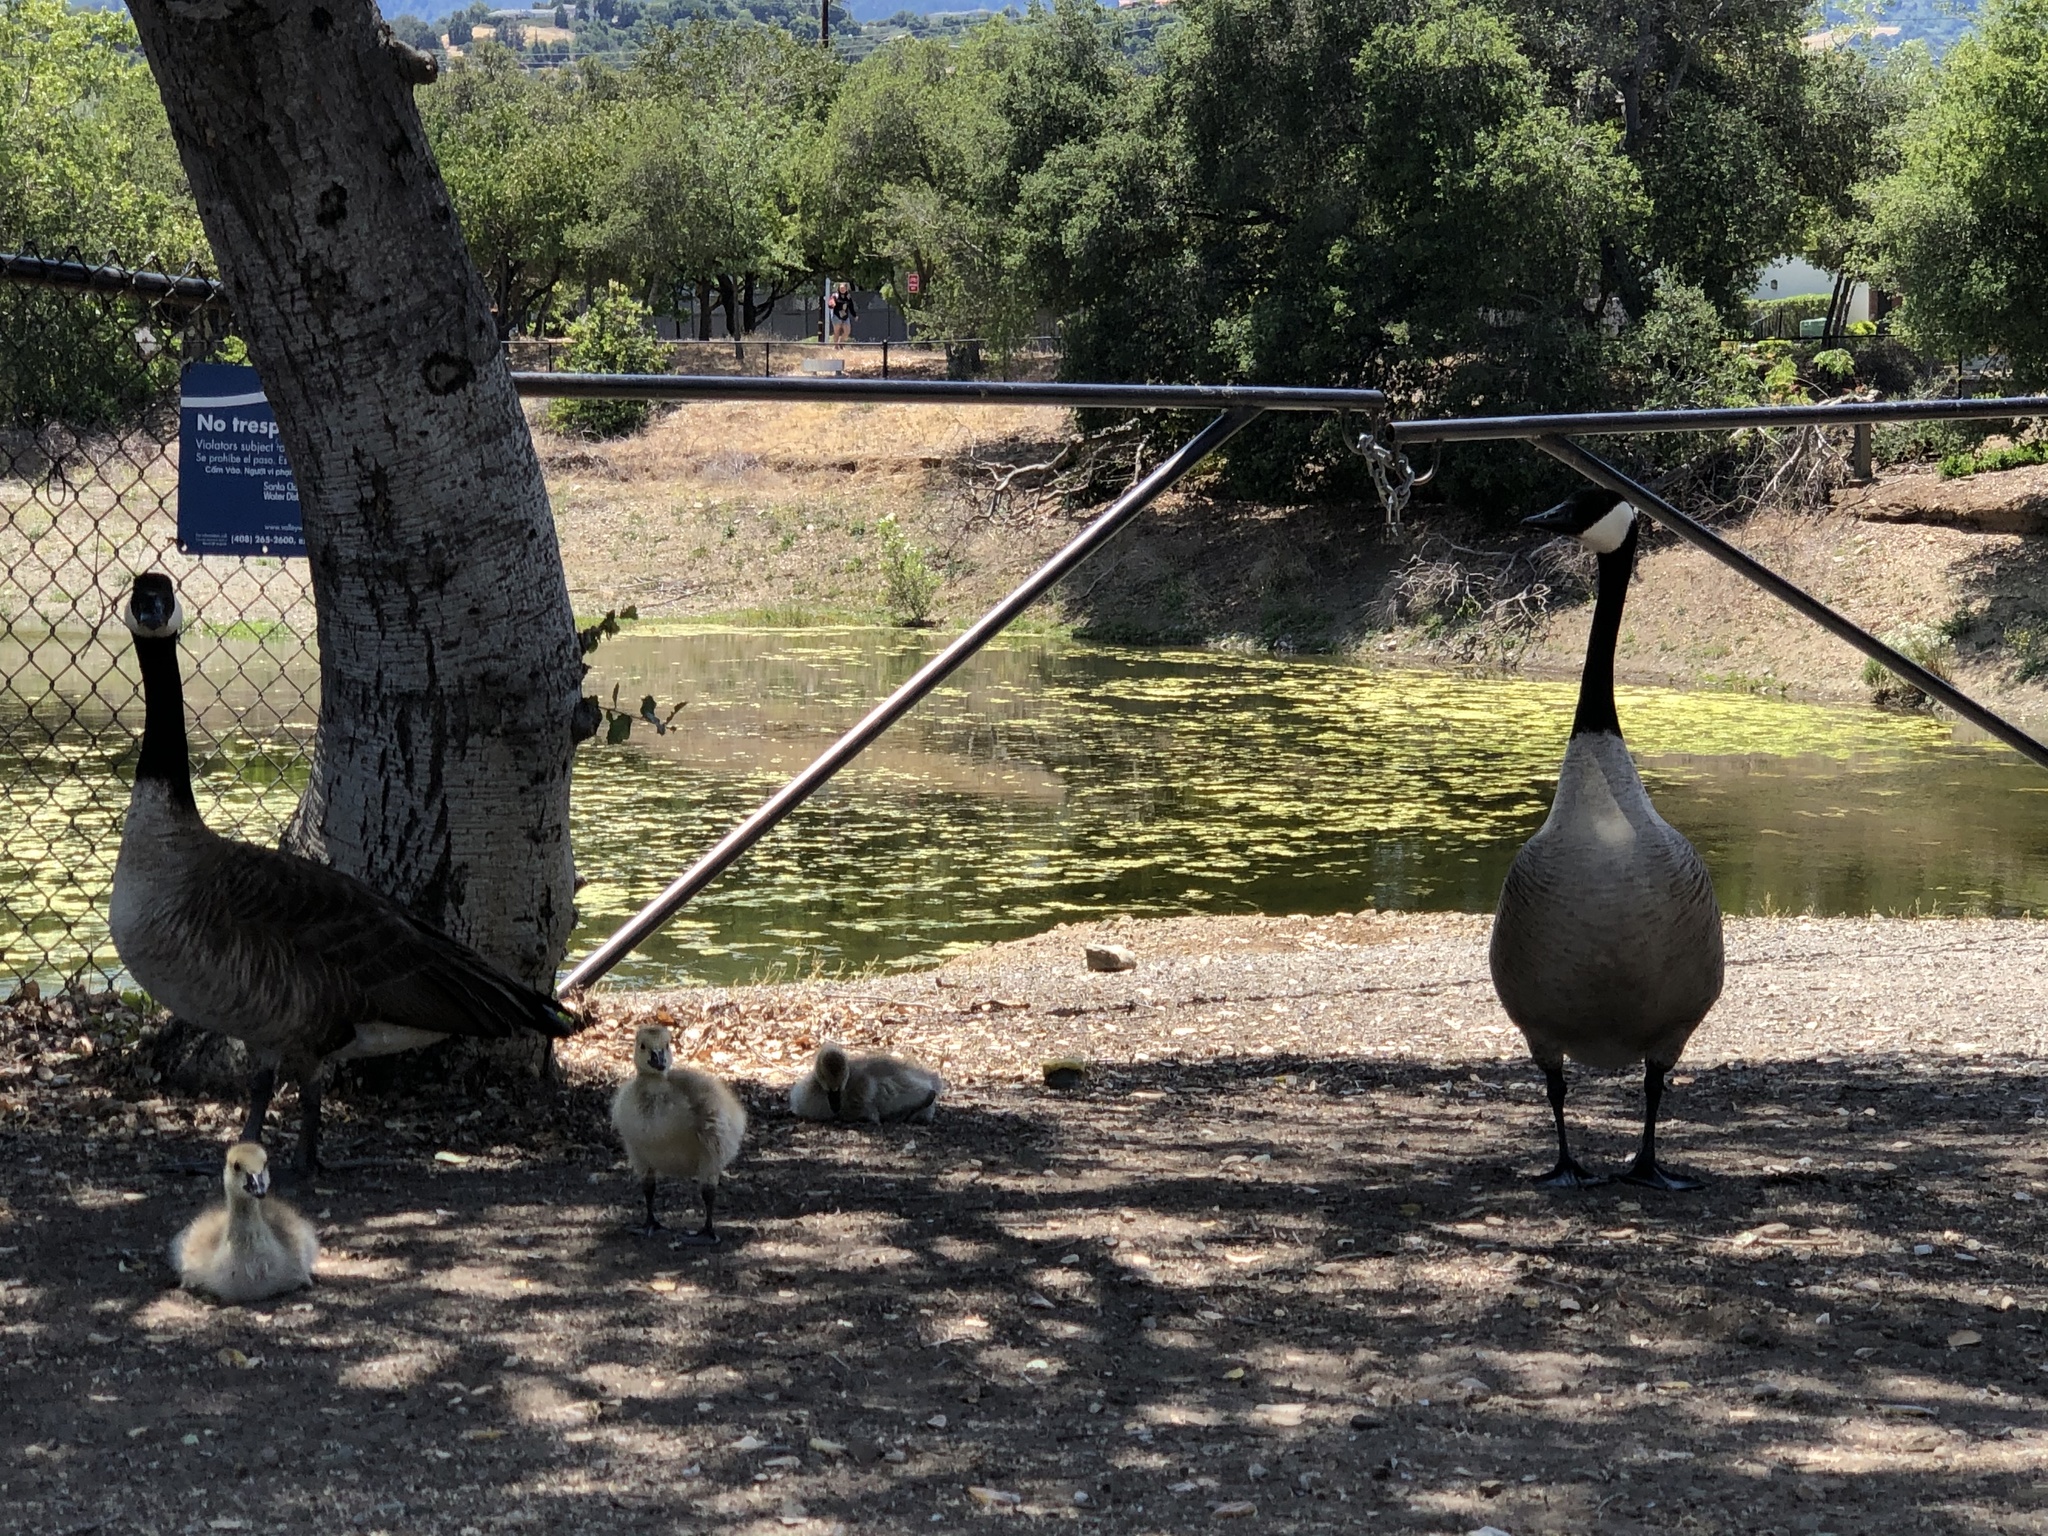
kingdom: Animalia
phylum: Chordata
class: Aves
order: Anseriformes
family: Anatidae
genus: Branta
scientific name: Branta canadensis
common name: Canada goose
